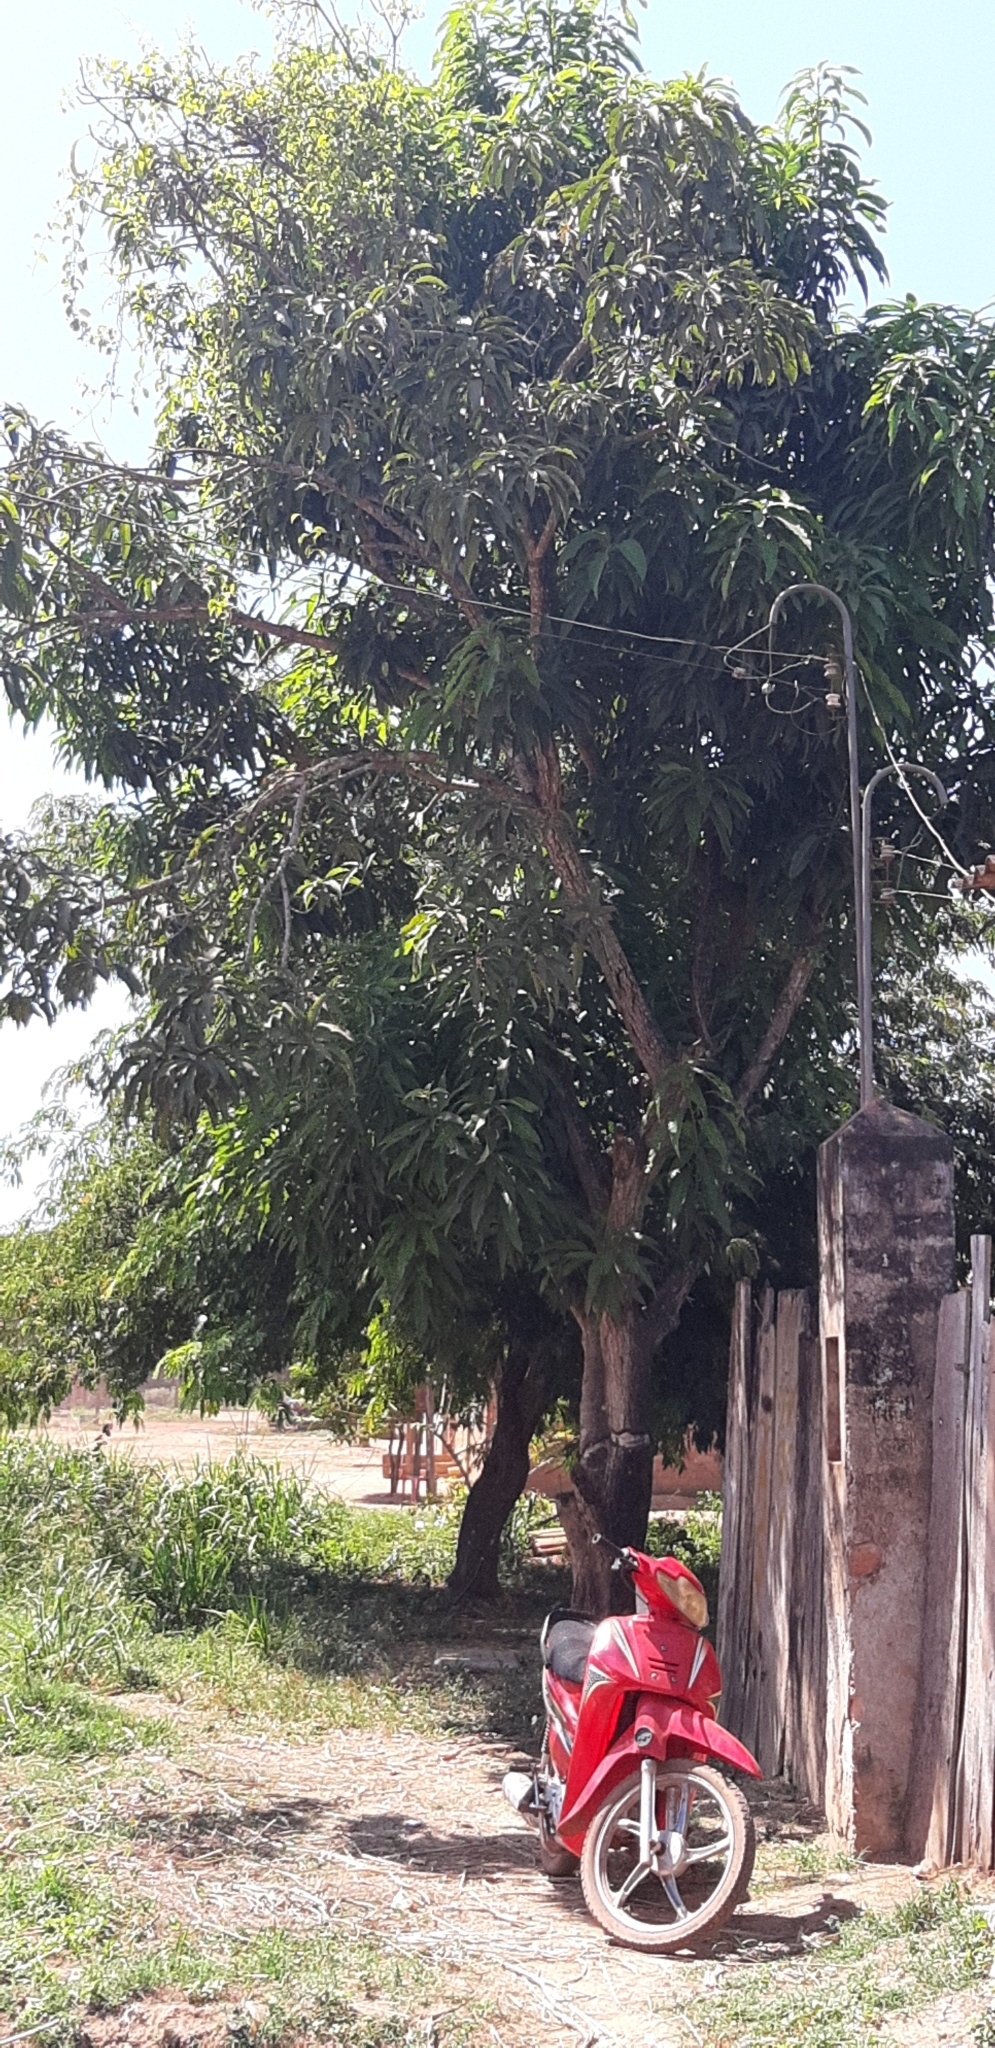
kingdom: Plantae
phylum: Tracheophyta
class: Magnoliopsida
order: Sapindales
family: Anacardiaceae
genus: Mangifera
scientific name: Mangifera indica
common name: Mango
